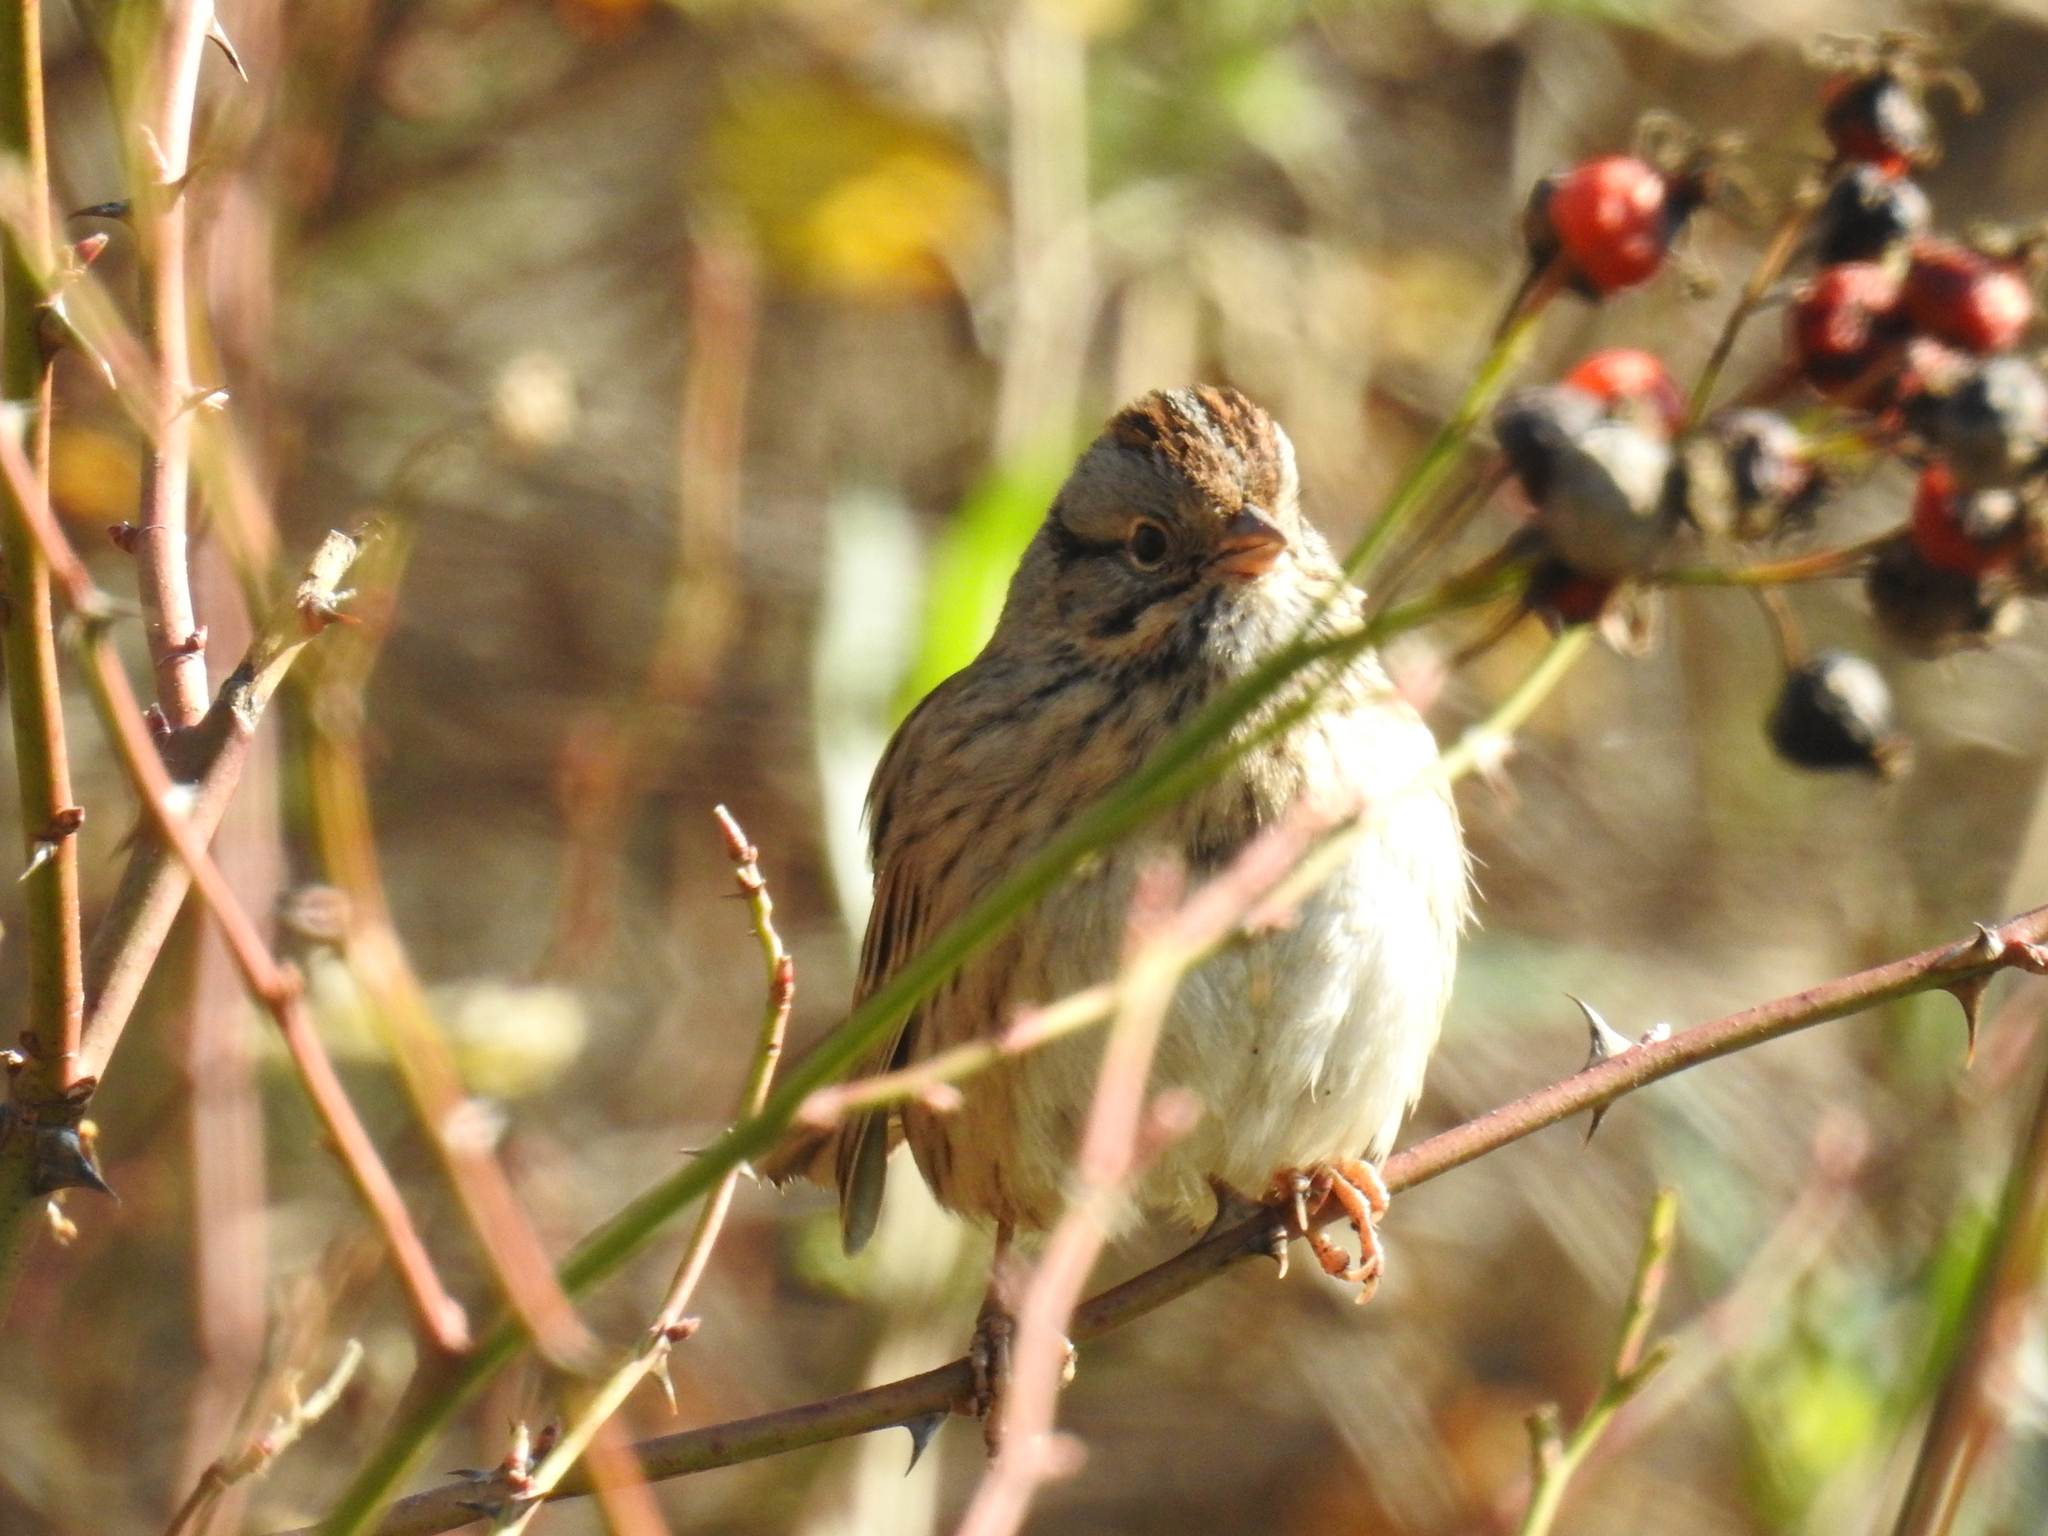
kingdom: Animalia
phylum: Chordata
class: Aves
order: Passeriformes
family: Passerellidae
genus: Melospiza
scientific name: Melospiza lincolnii
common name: Lincoln's sparrow
